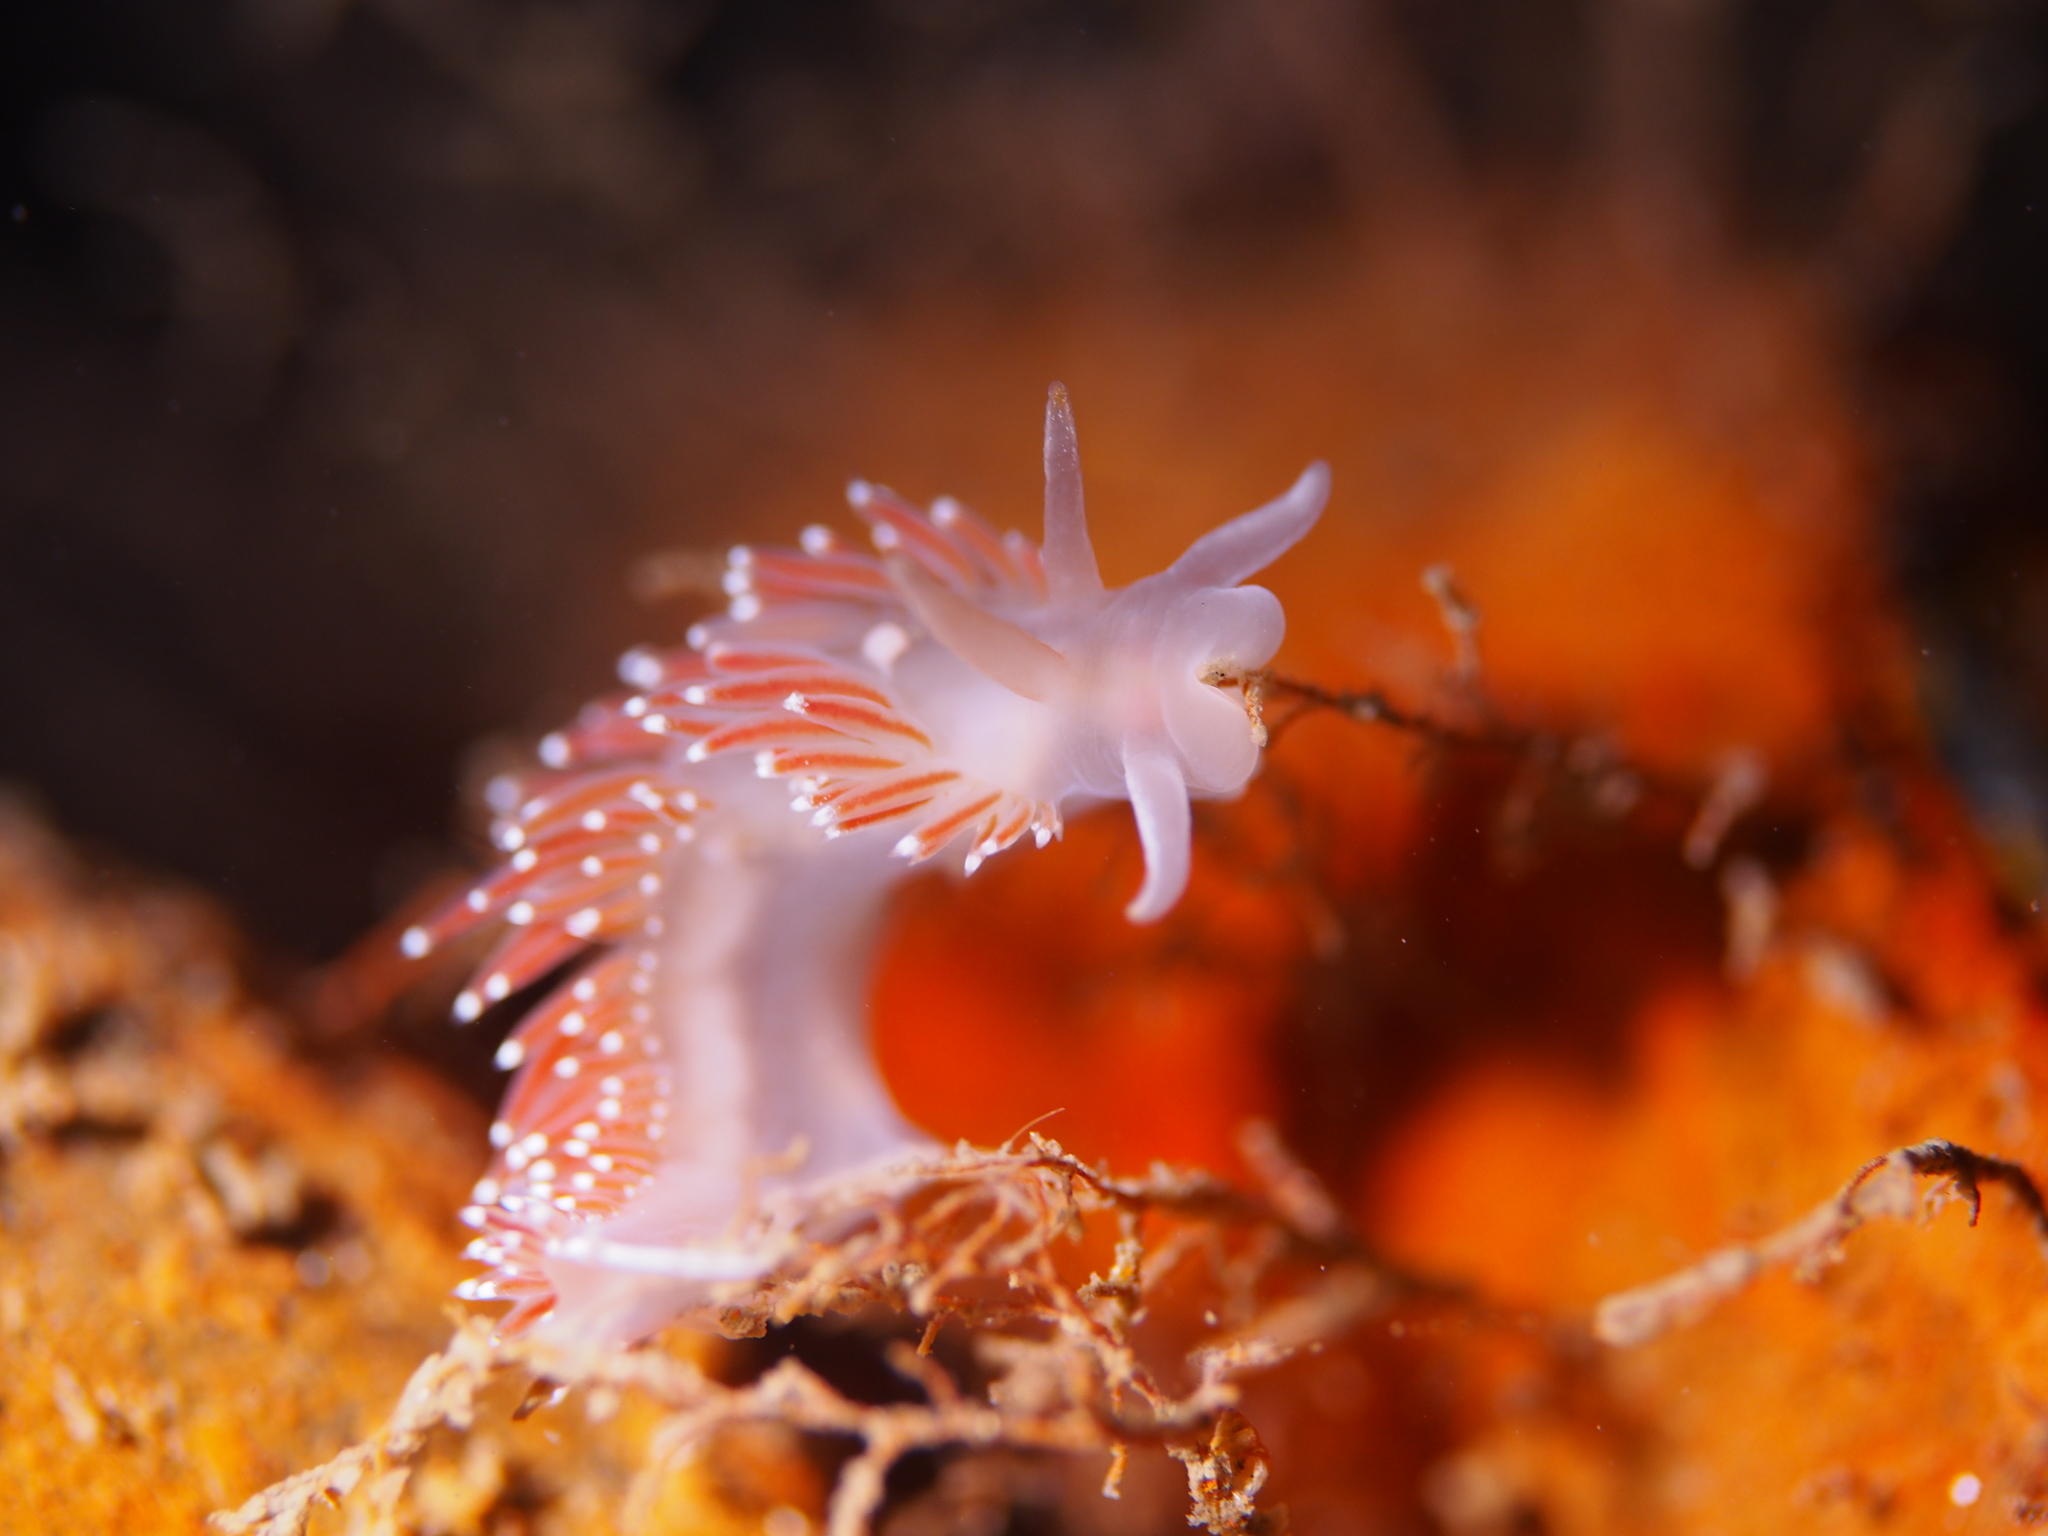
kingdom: Animalia
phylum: Mollusca
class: Gastropoda
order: Nudibranchia
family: Coryphellidae
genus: Coryphella
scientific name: Coryphella verrucosa
